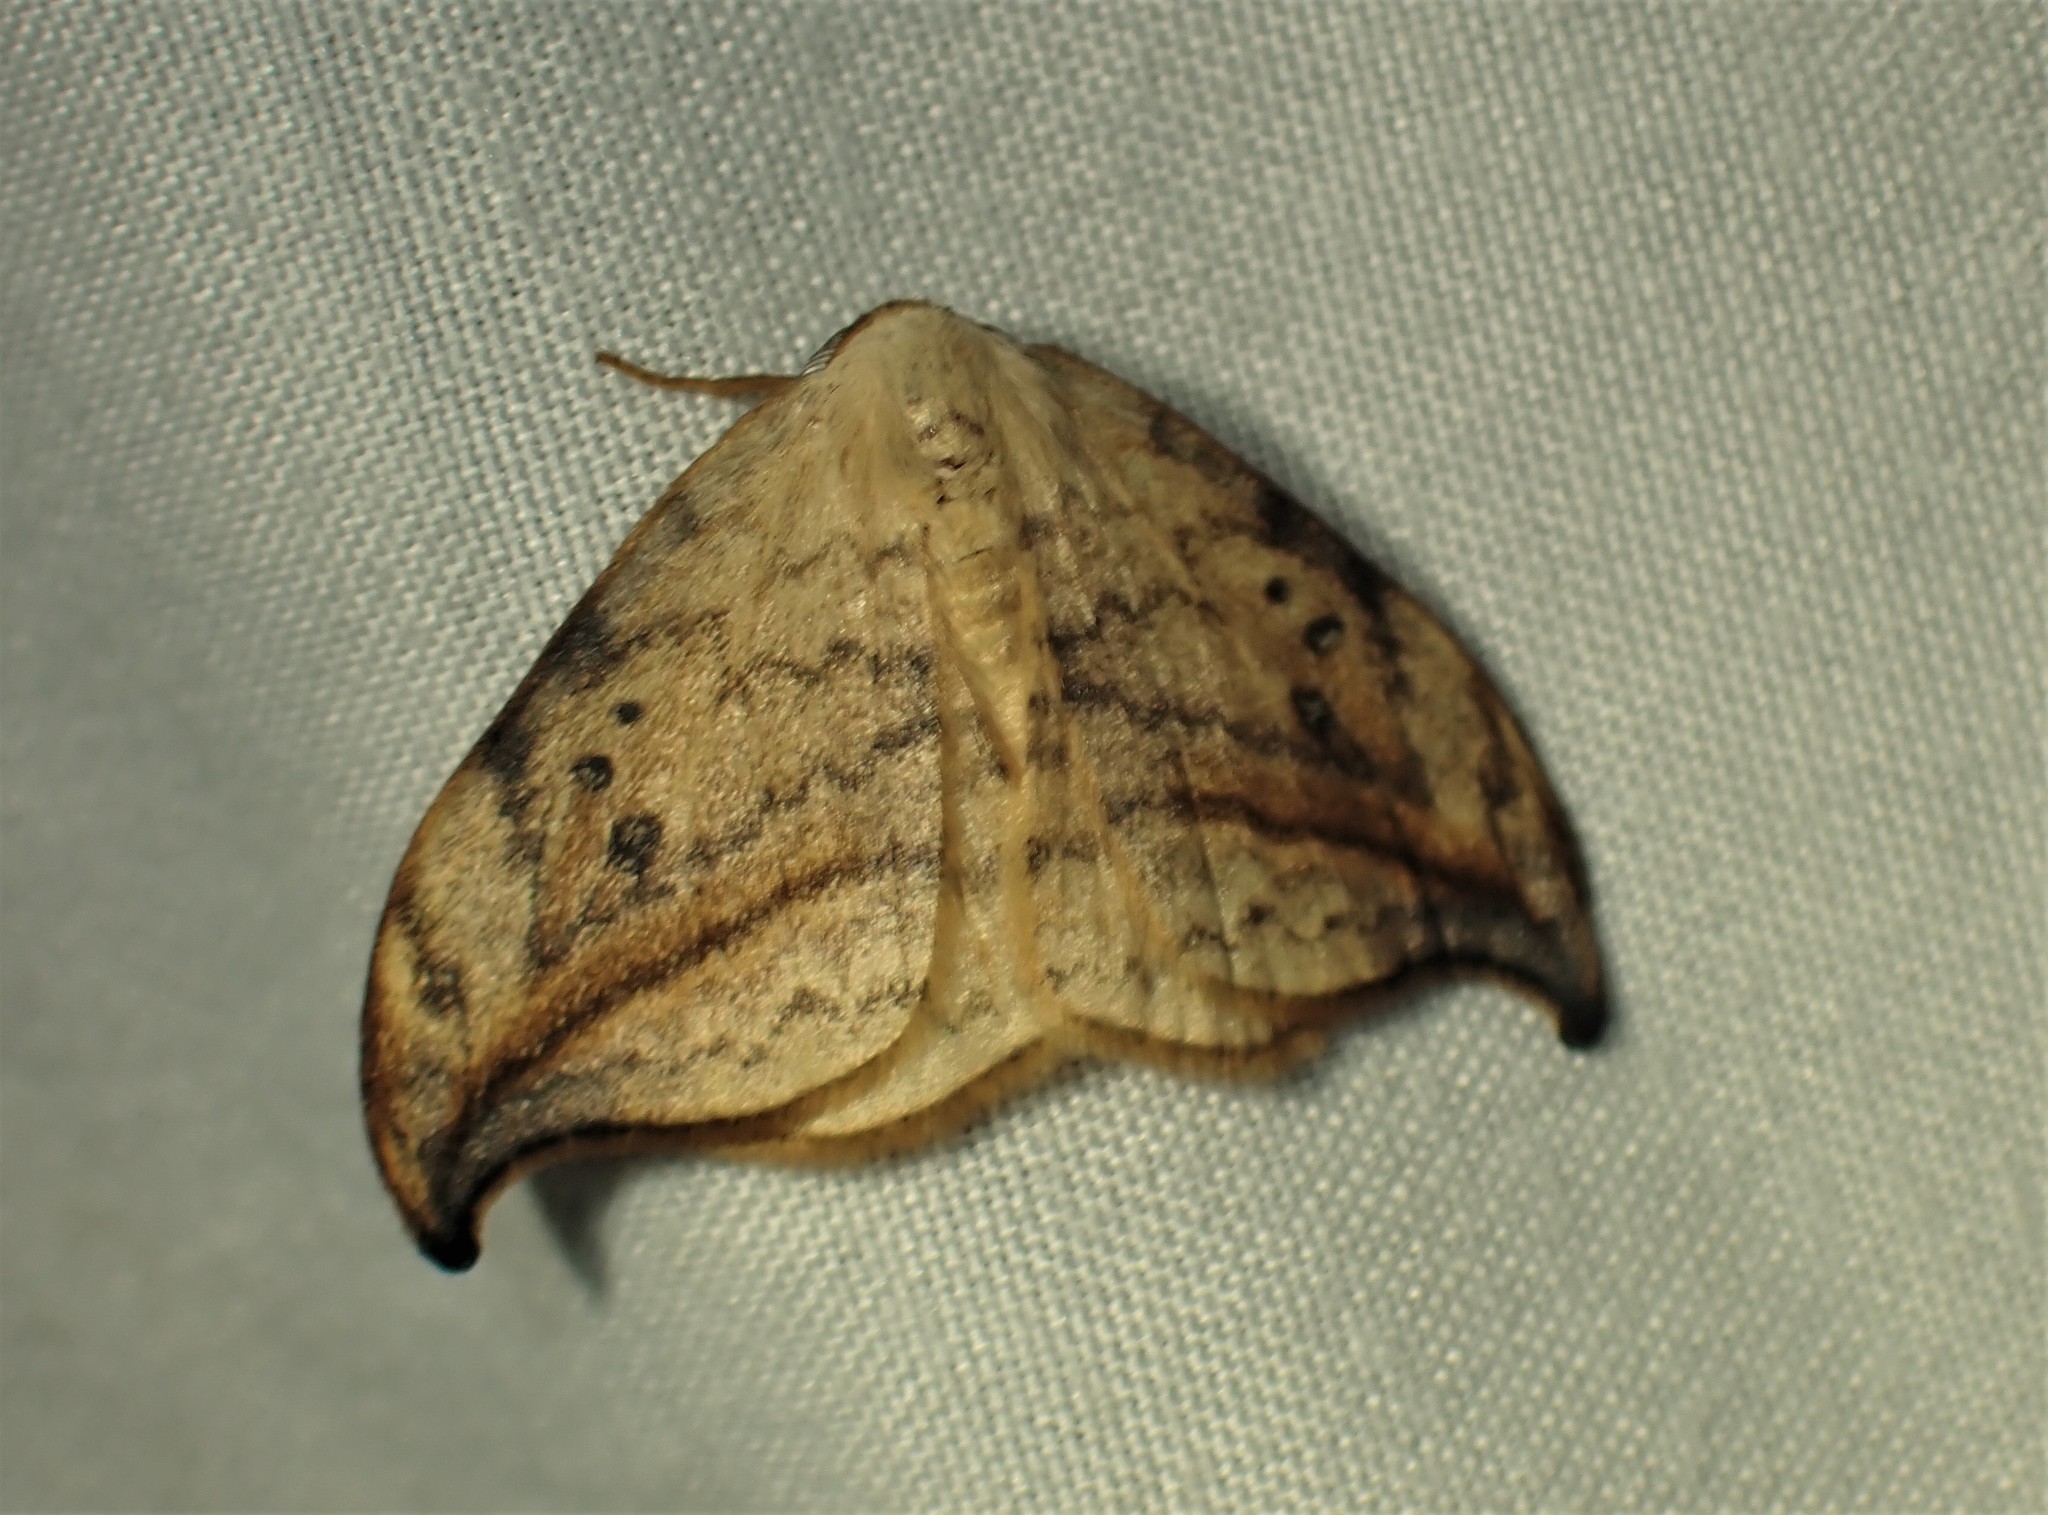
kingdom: Animalia
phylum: Arthropoda
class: Insecta
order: Lepidoptera
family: Drepanidae
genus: Drepana
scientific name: Drepana arcuata
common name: Arched hooktip moth
